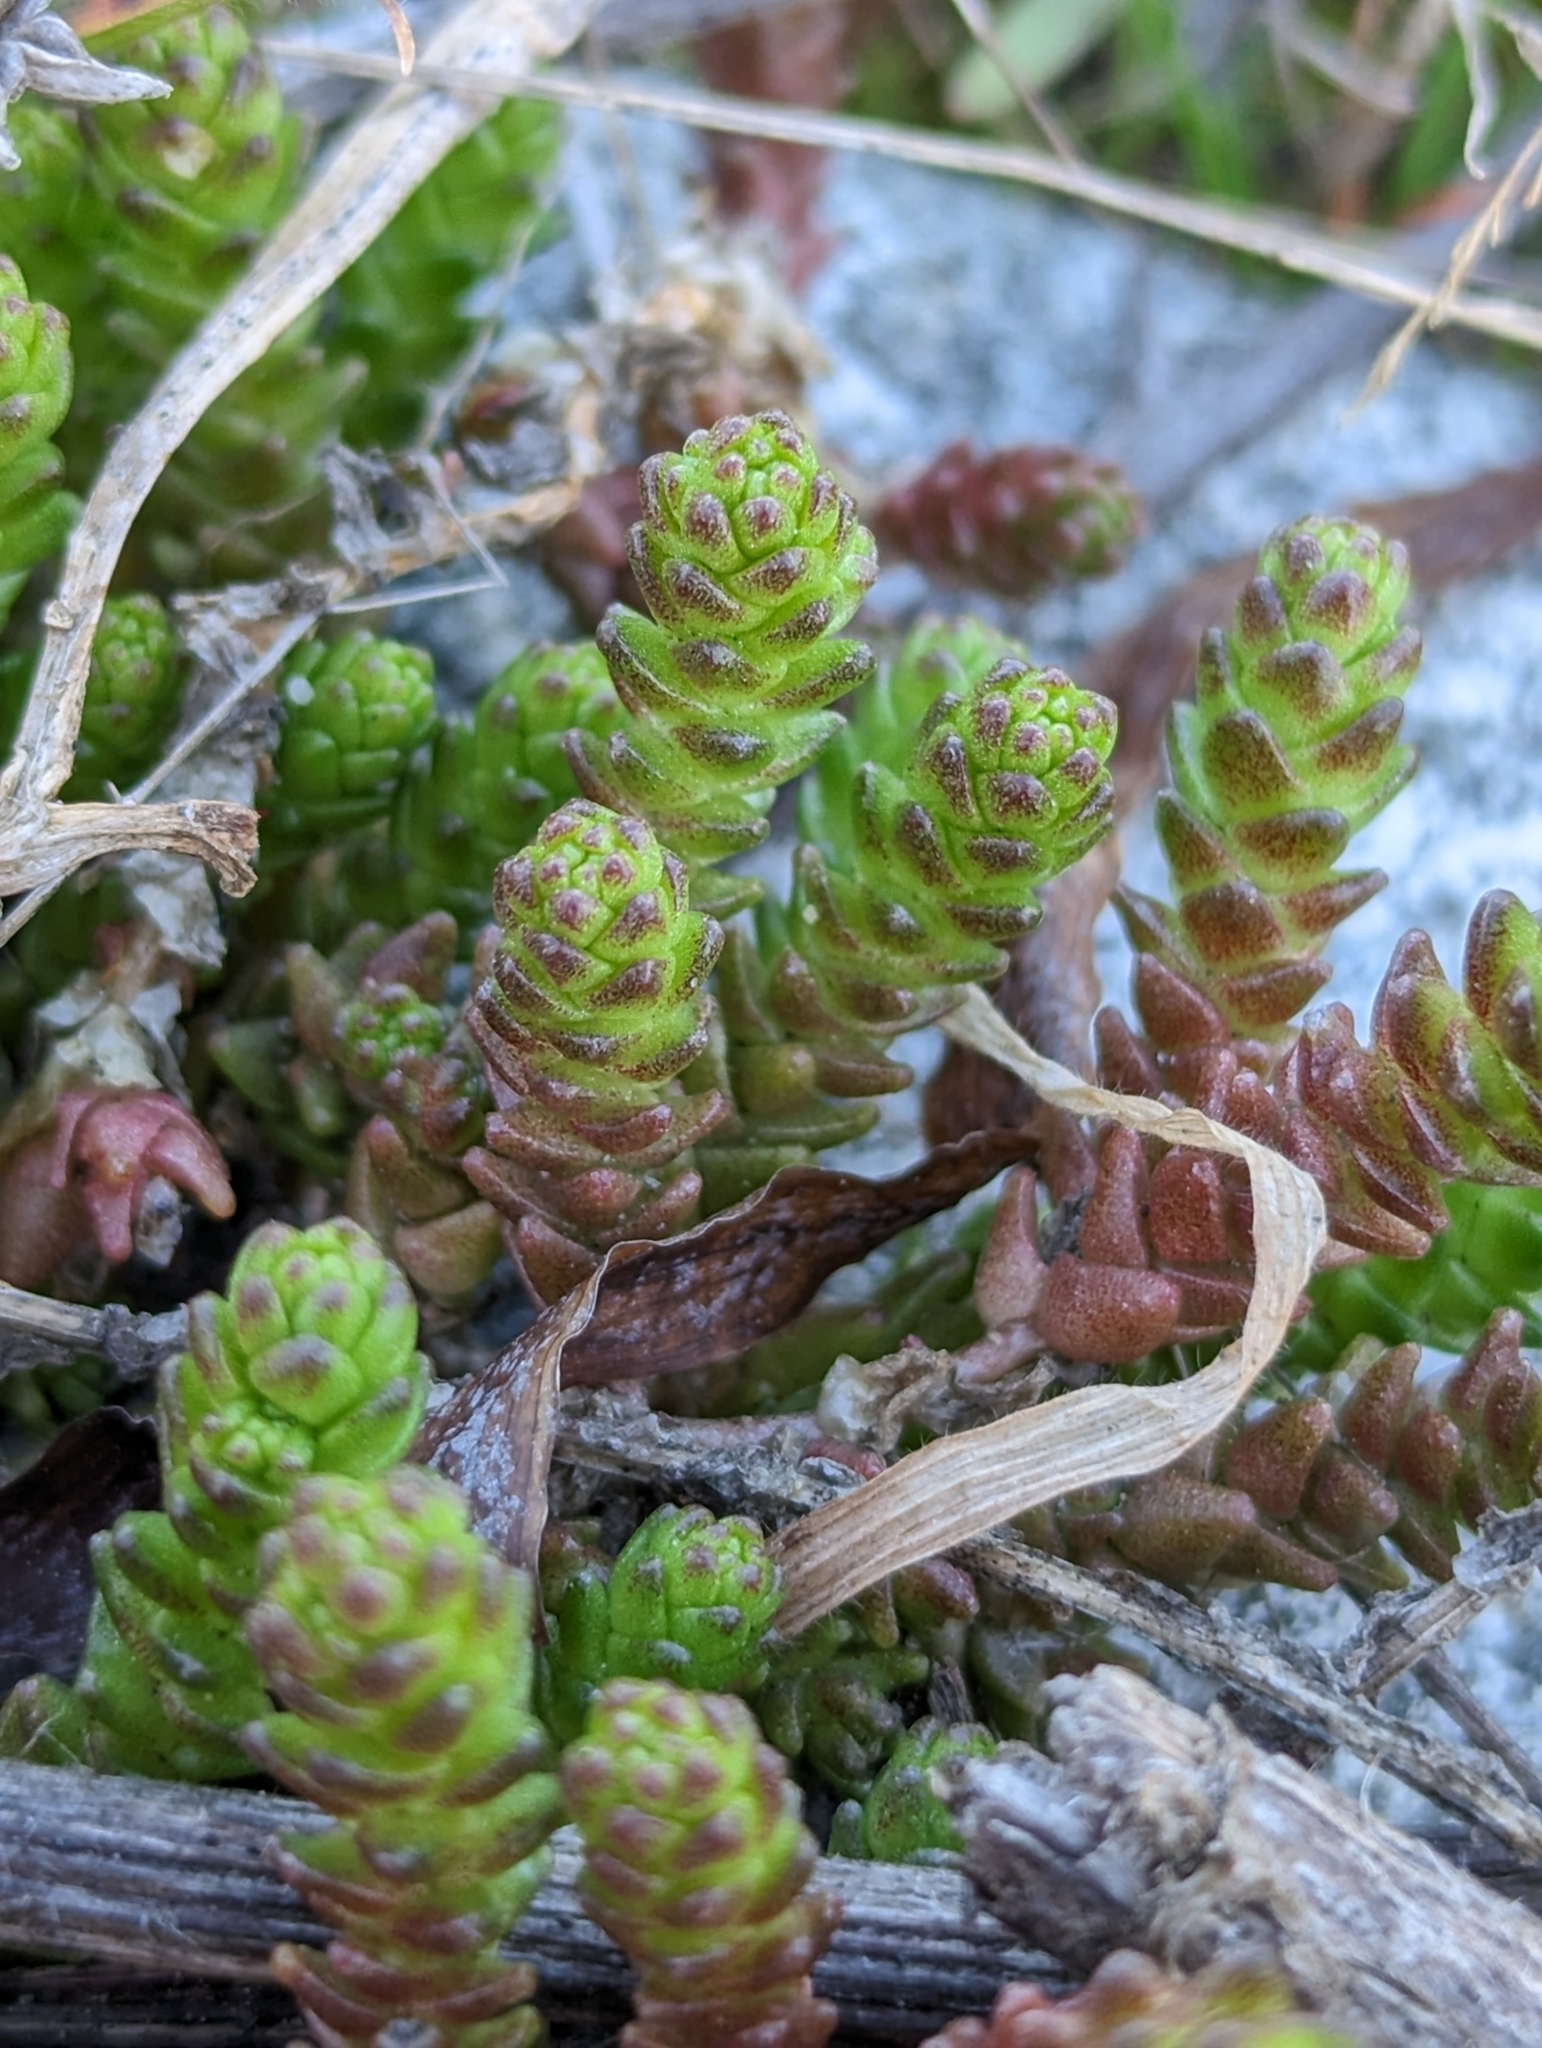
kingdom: Plantae
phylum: Tracheophyta
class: Magnoliopsida
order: Saxifragales
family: Crassulaceae
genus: Sedum
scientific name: Sedum acre
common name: Biting stonecrop
